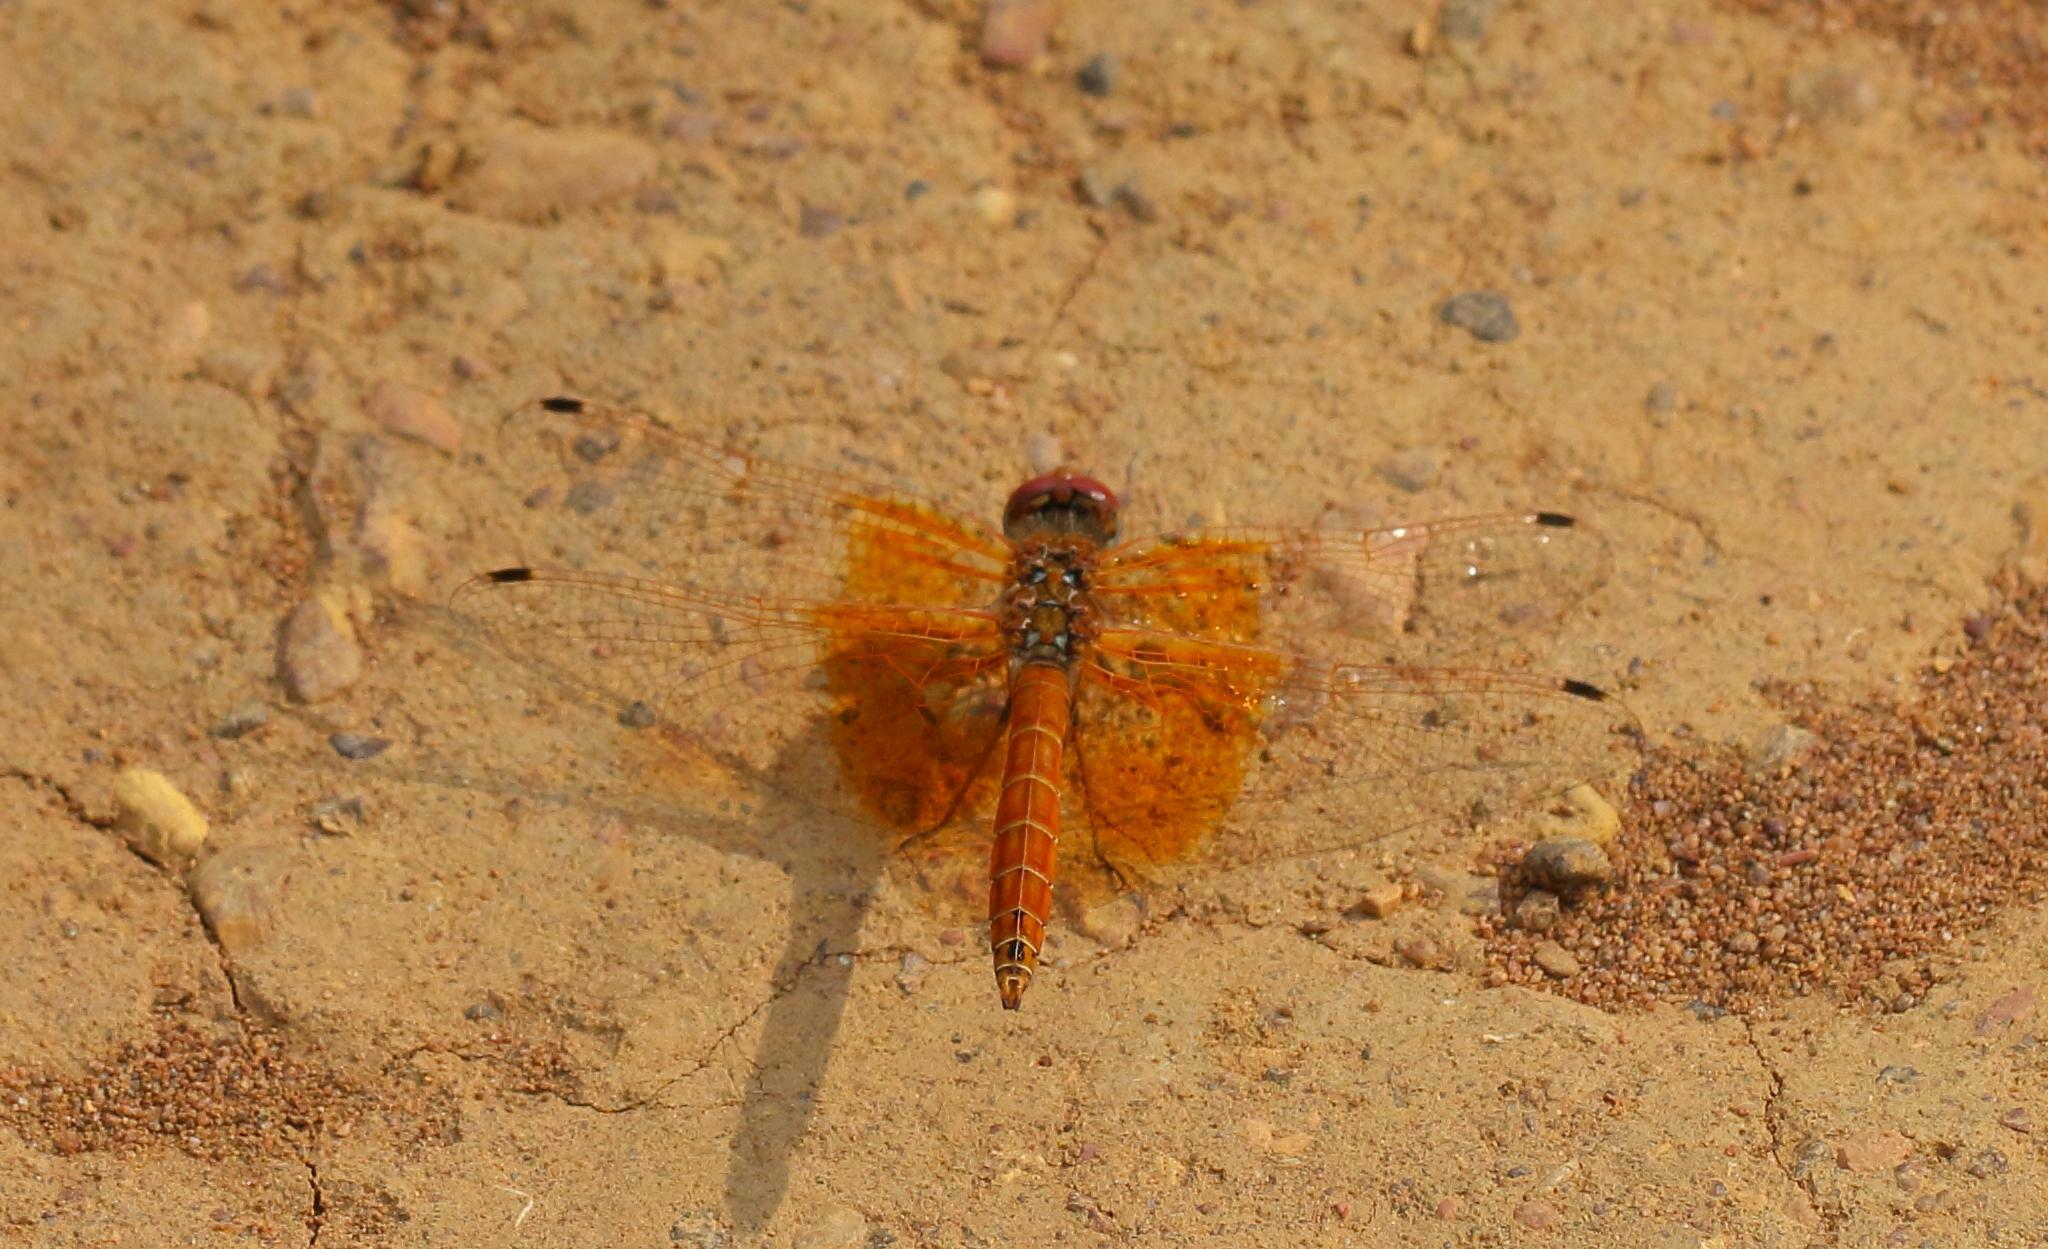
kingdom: Animalia
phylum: Arthropoda
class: Insecta
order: Odonata
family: Libellulidae
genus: Trithemis
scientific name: Trithemis kirbyi
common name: Kirby's dropwing
